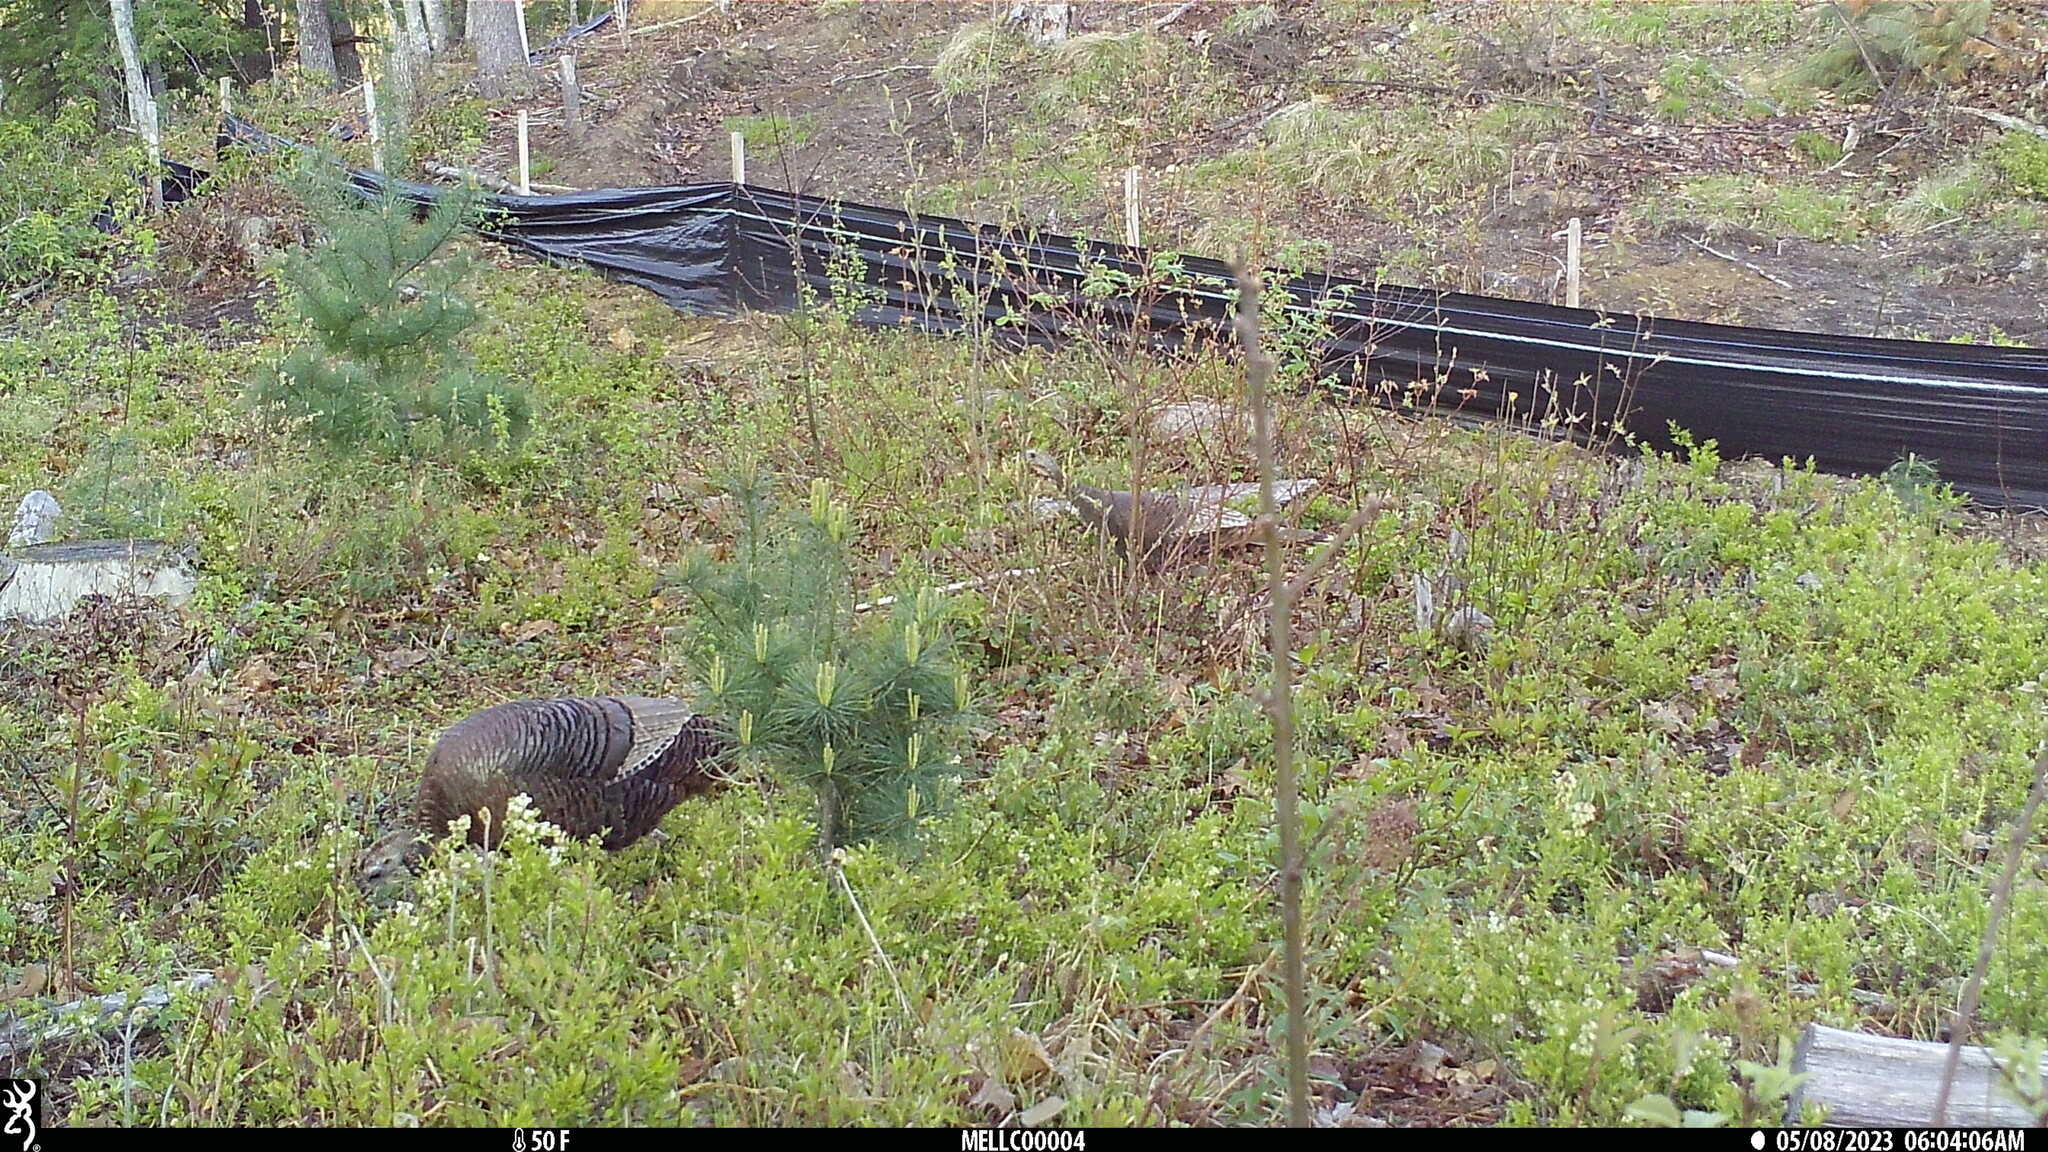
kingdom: Animalia
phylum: Chordata
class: Aves
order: Galliformes
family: Phasianidae
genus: Meleagris
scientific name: Meleagris gallopavo
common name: Wild turkey
